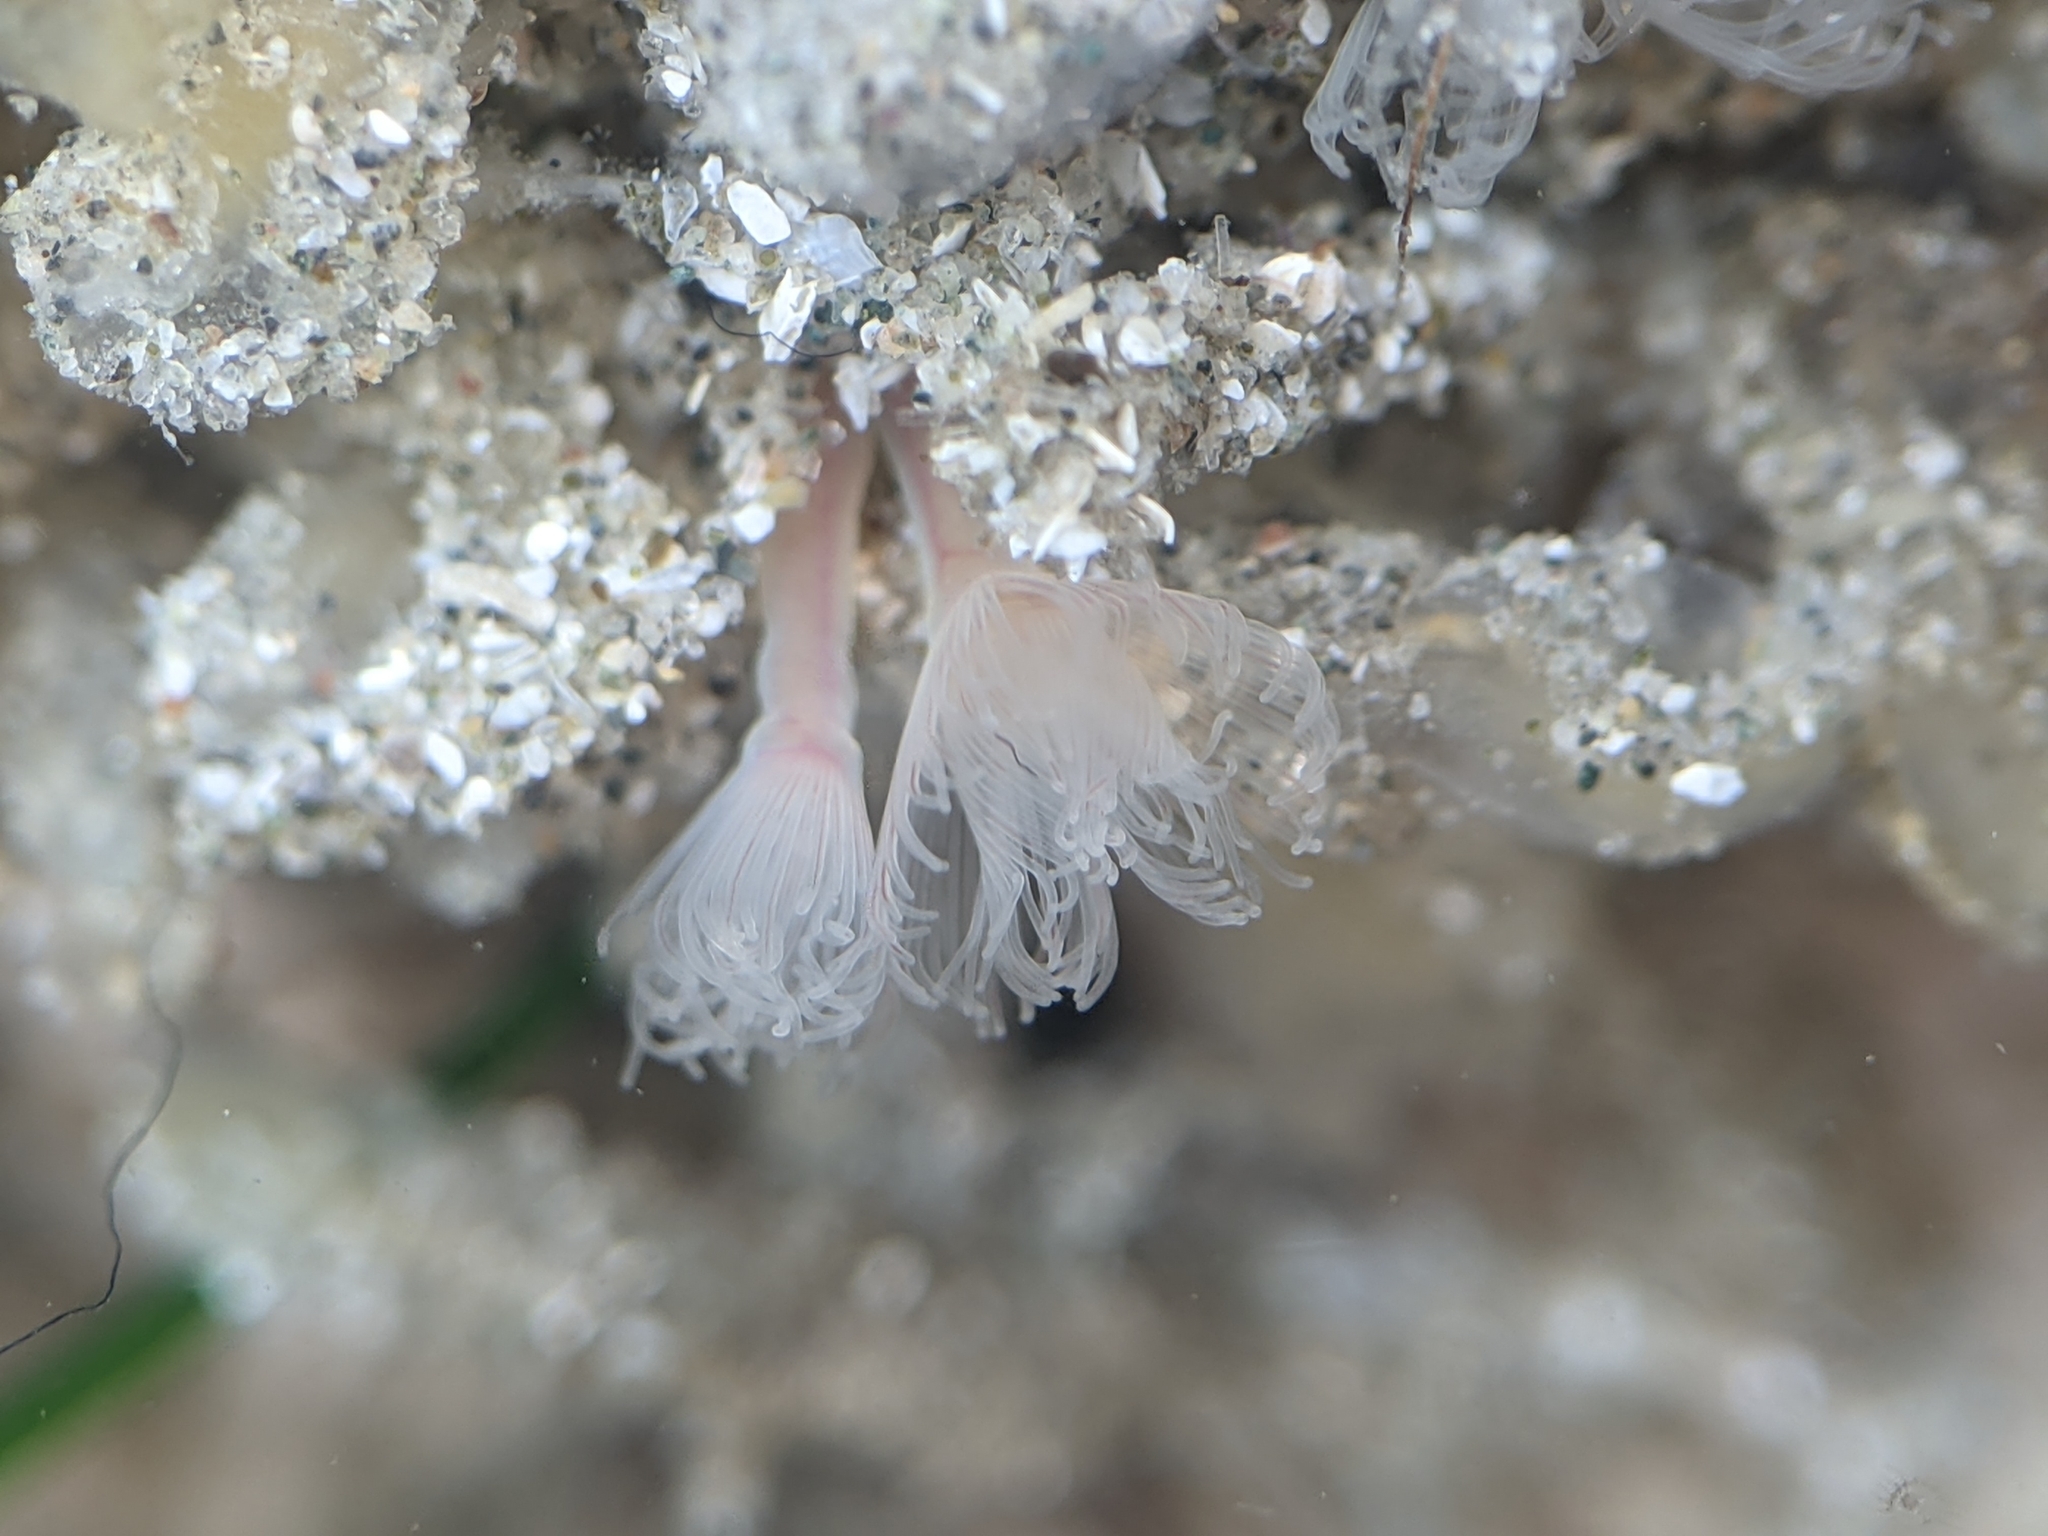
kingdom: Animalia
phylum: Phoronida
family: Phoronidae
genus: Phoronis
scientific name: Phoronis ijimai
